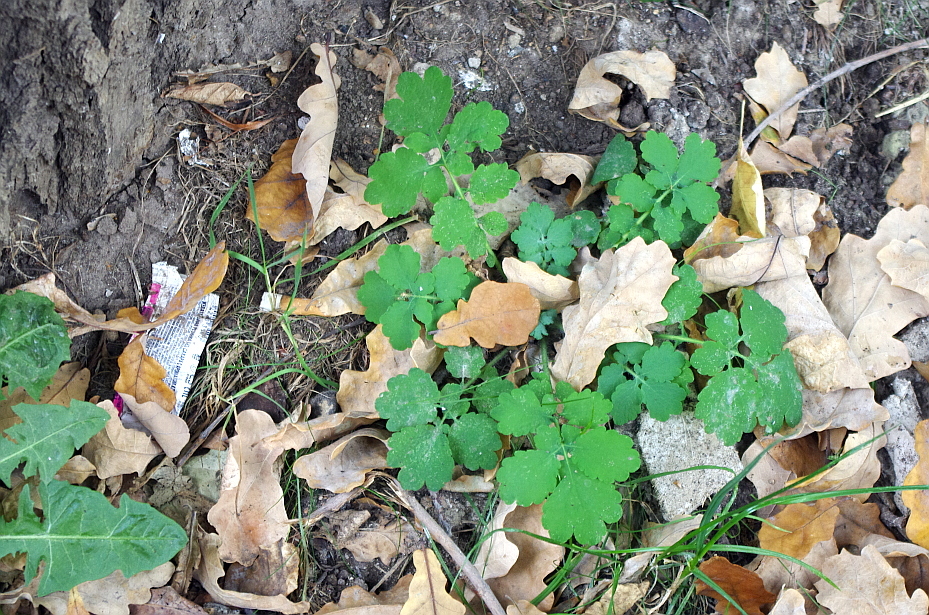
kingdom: Plantae
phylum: Tracheophyta
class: Magnoliopsida
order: Ranunculales
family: Papaveraceae
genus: Chelidonium
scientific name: Chelidonium majus
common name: Greater celandine
